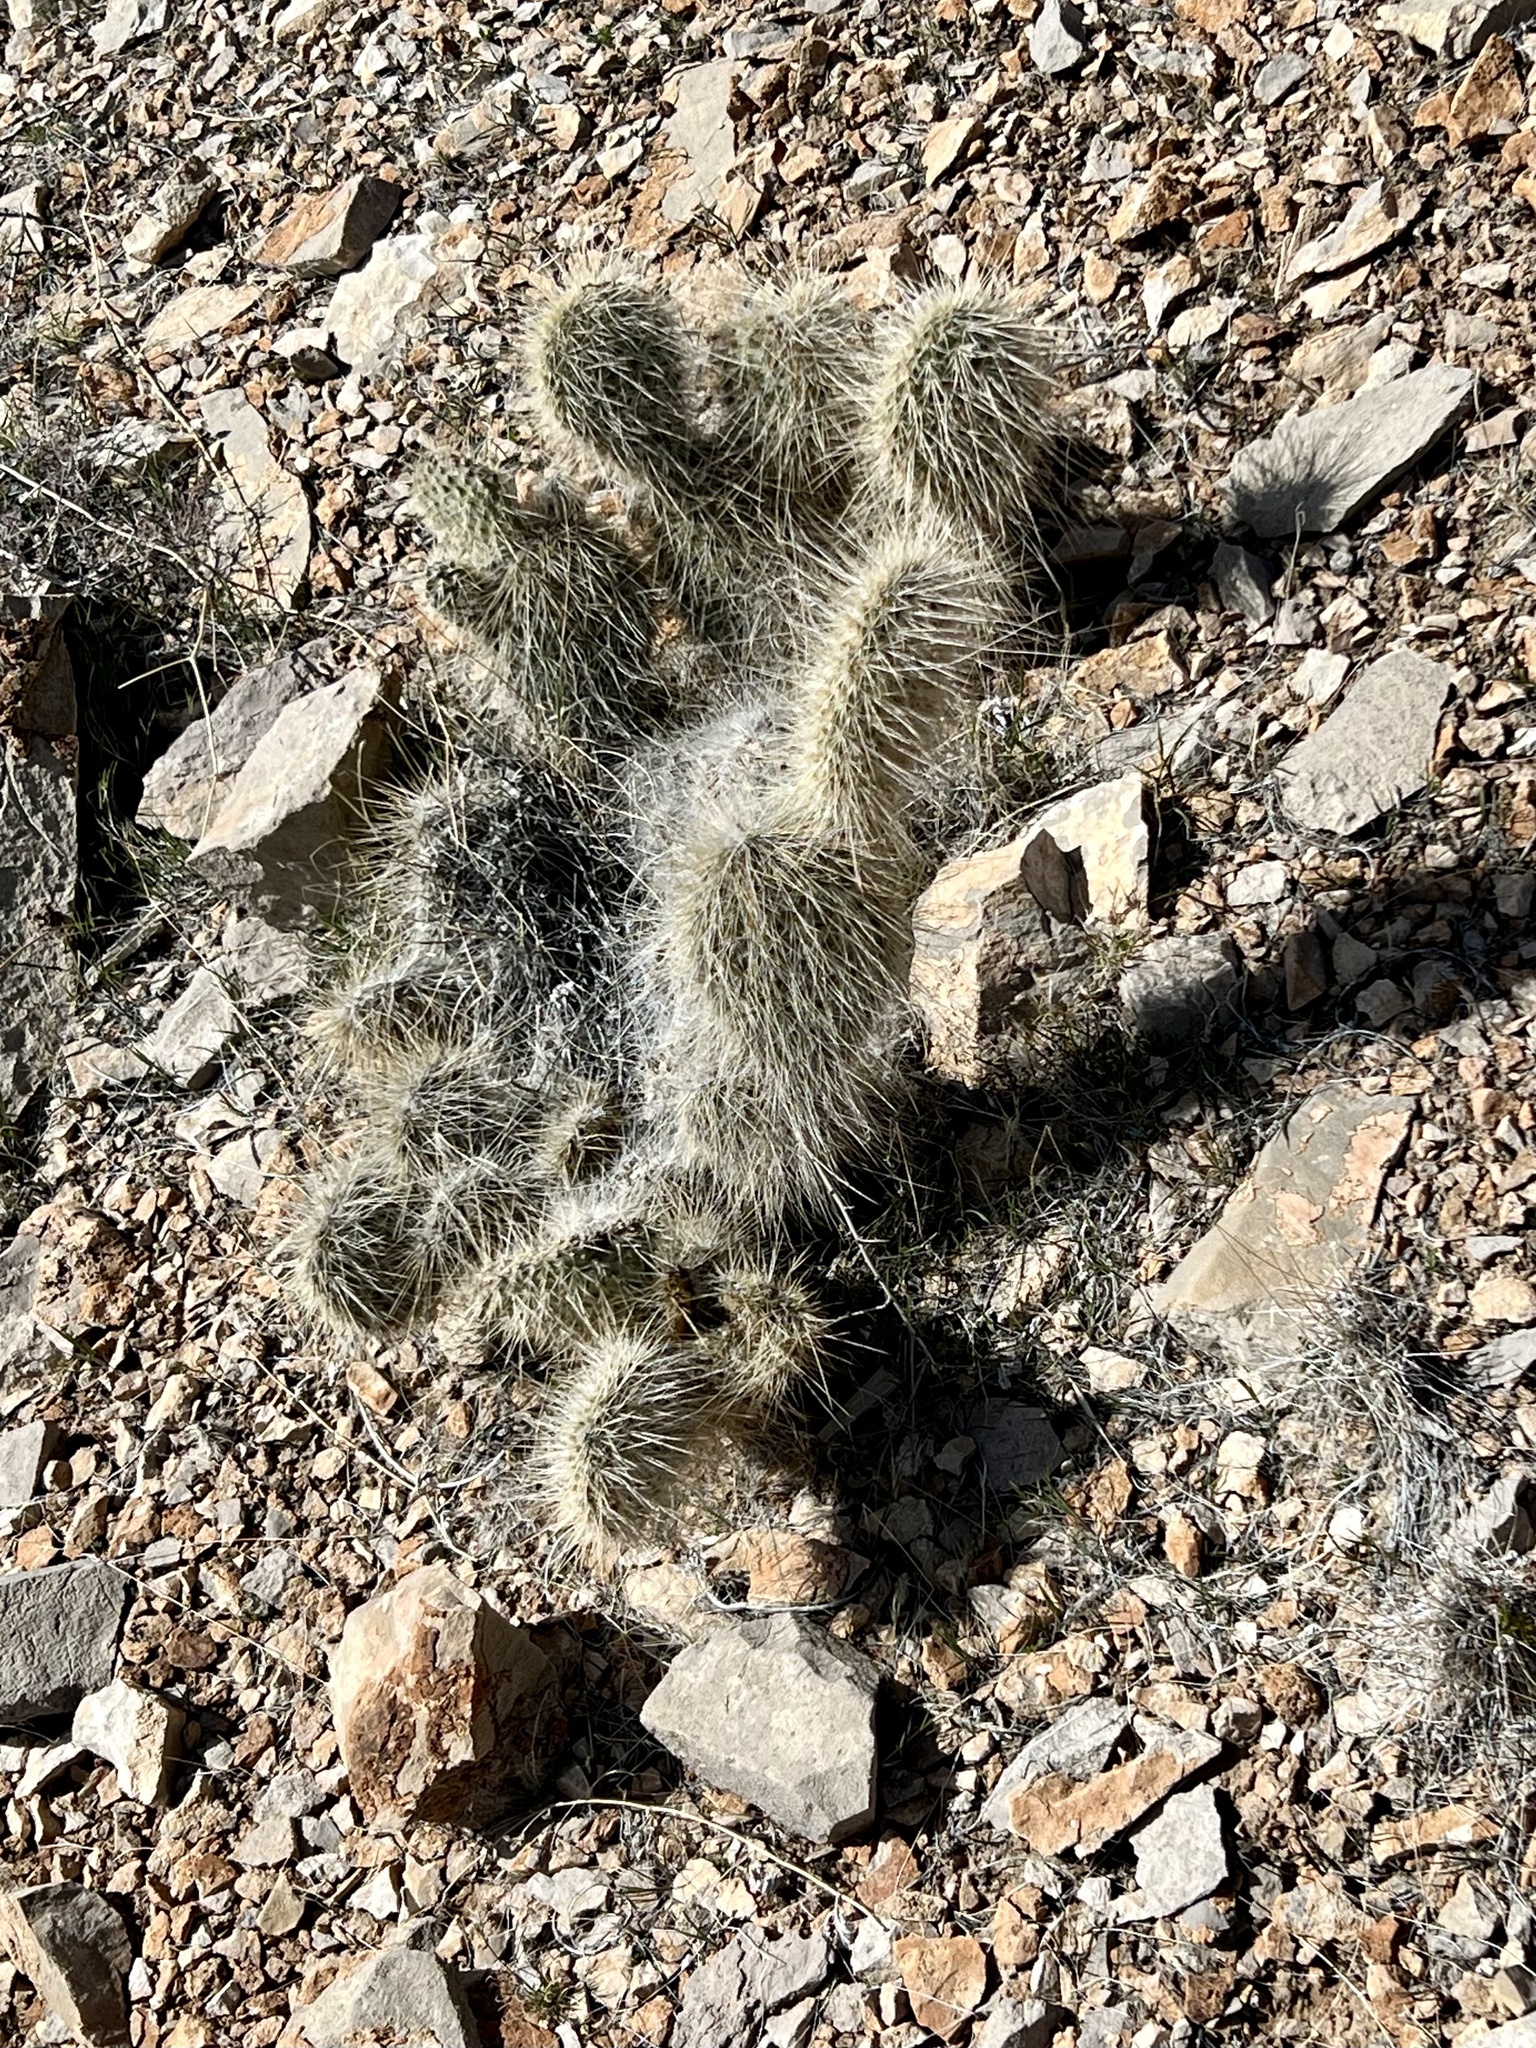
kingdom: Plantae
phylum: Tracheophyta
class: Magnoliopsida
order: Caryophyllales
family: Cactaceae
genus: Opuntia
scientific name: Opuntia polyacantha
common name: Plains prickly-pear
